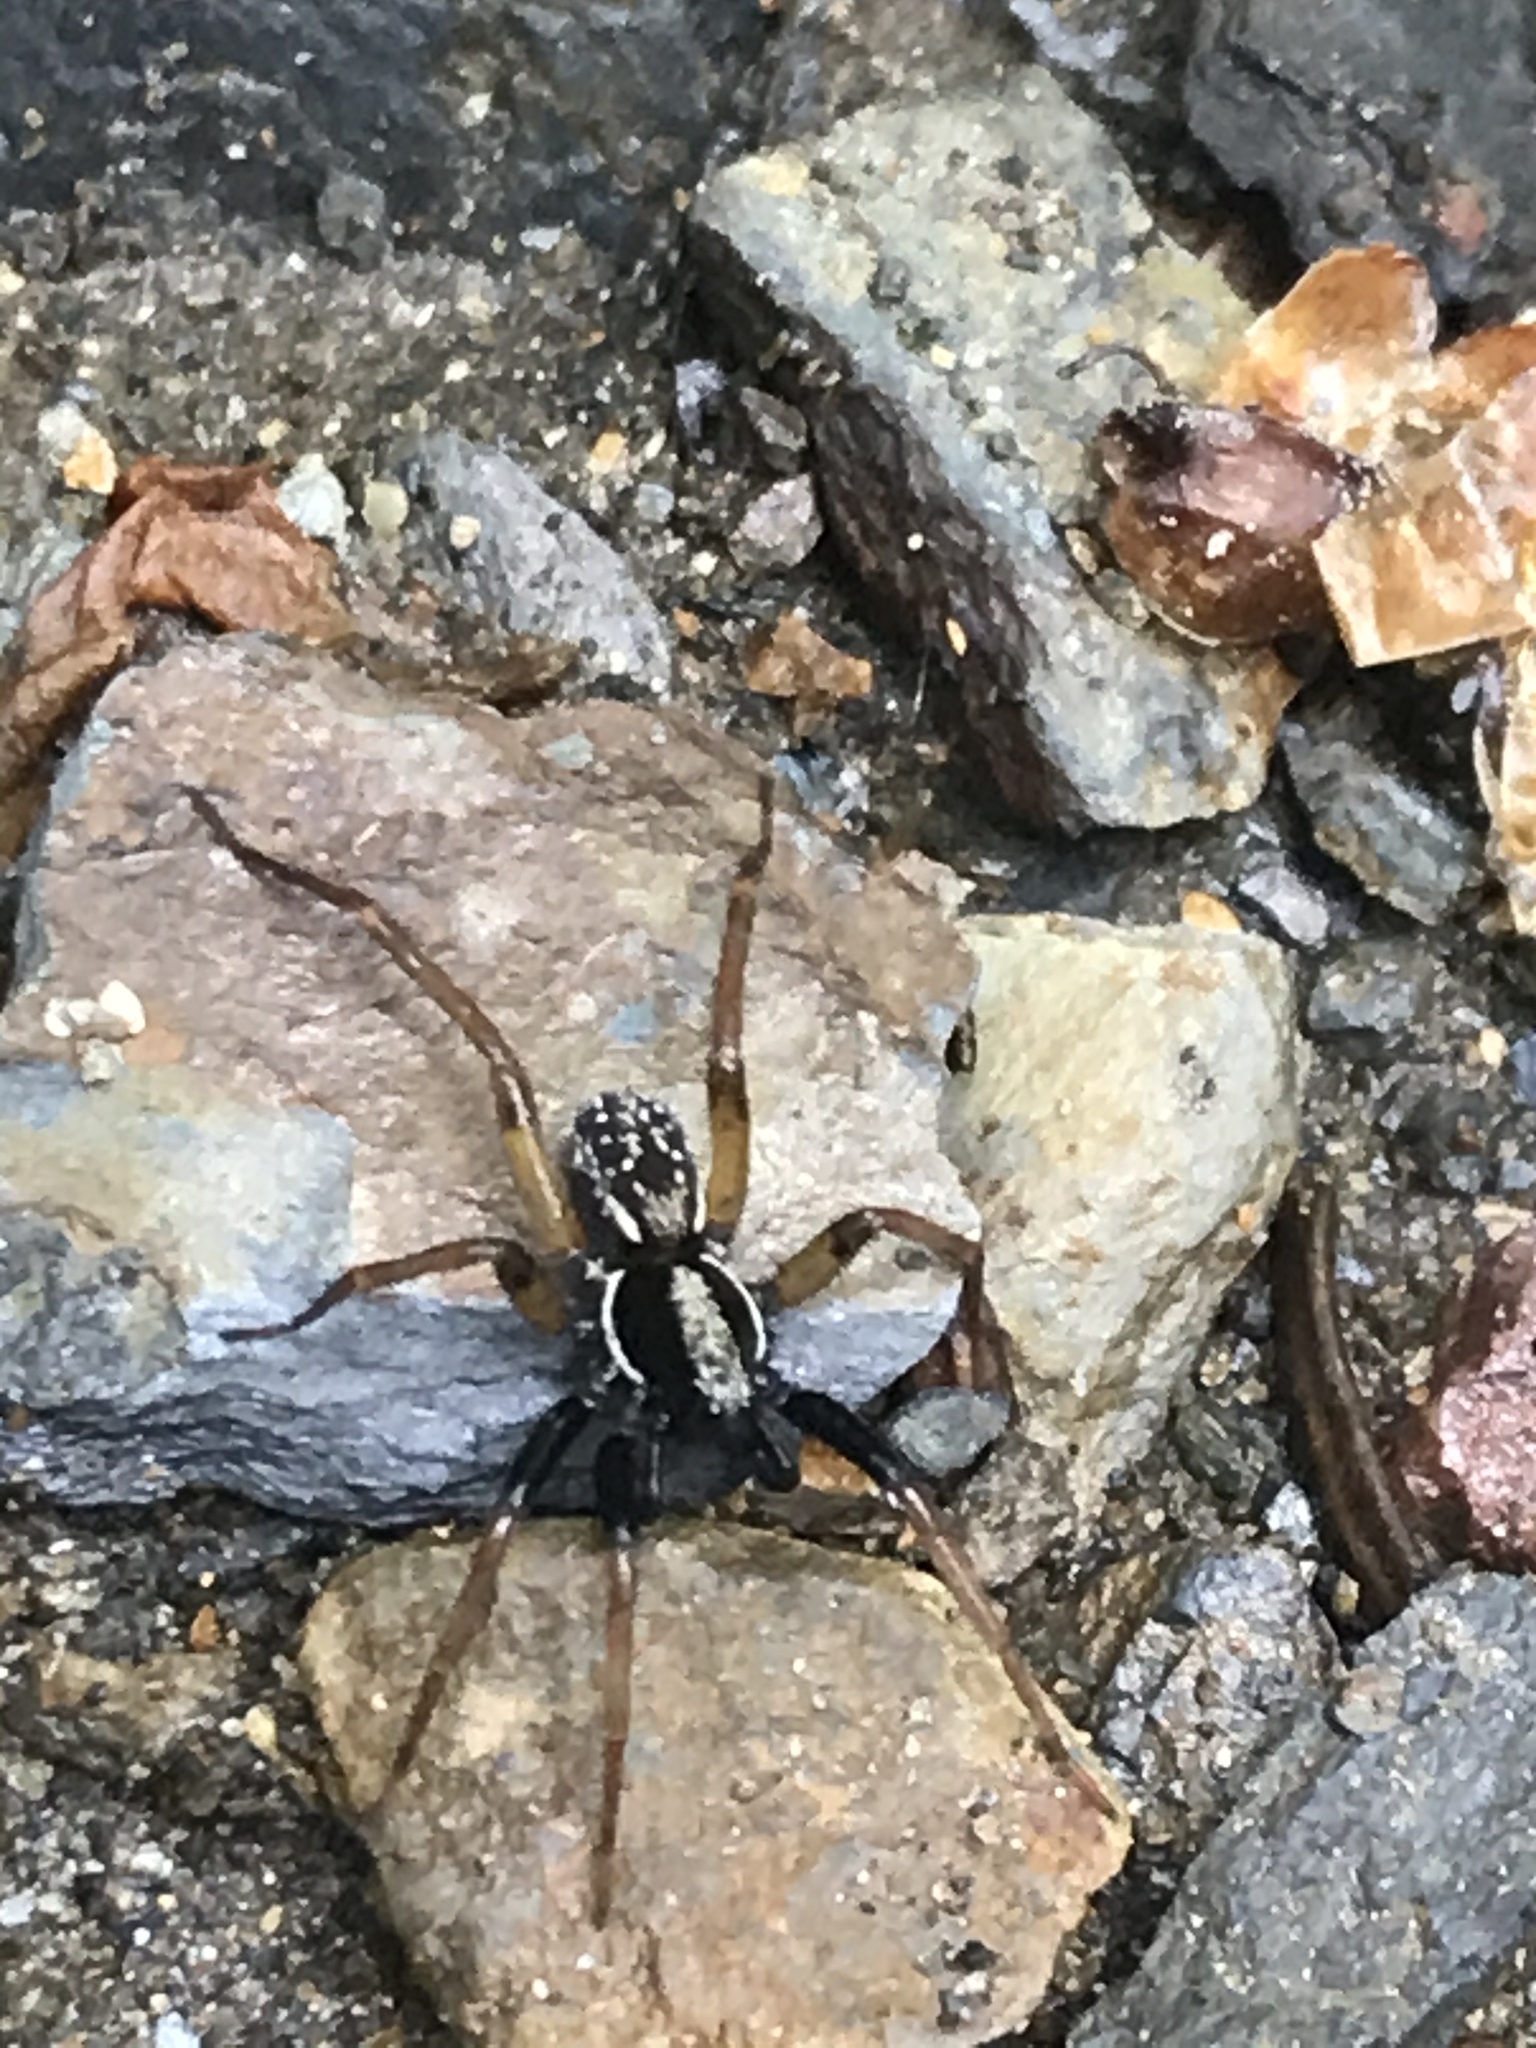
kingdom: Animalia
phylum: Arthropoda
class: Arachnida
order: Araneae
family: Lycosidae
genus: Pirata
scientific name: Pirata montanus
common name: Dark-legged pirate wolf spider
